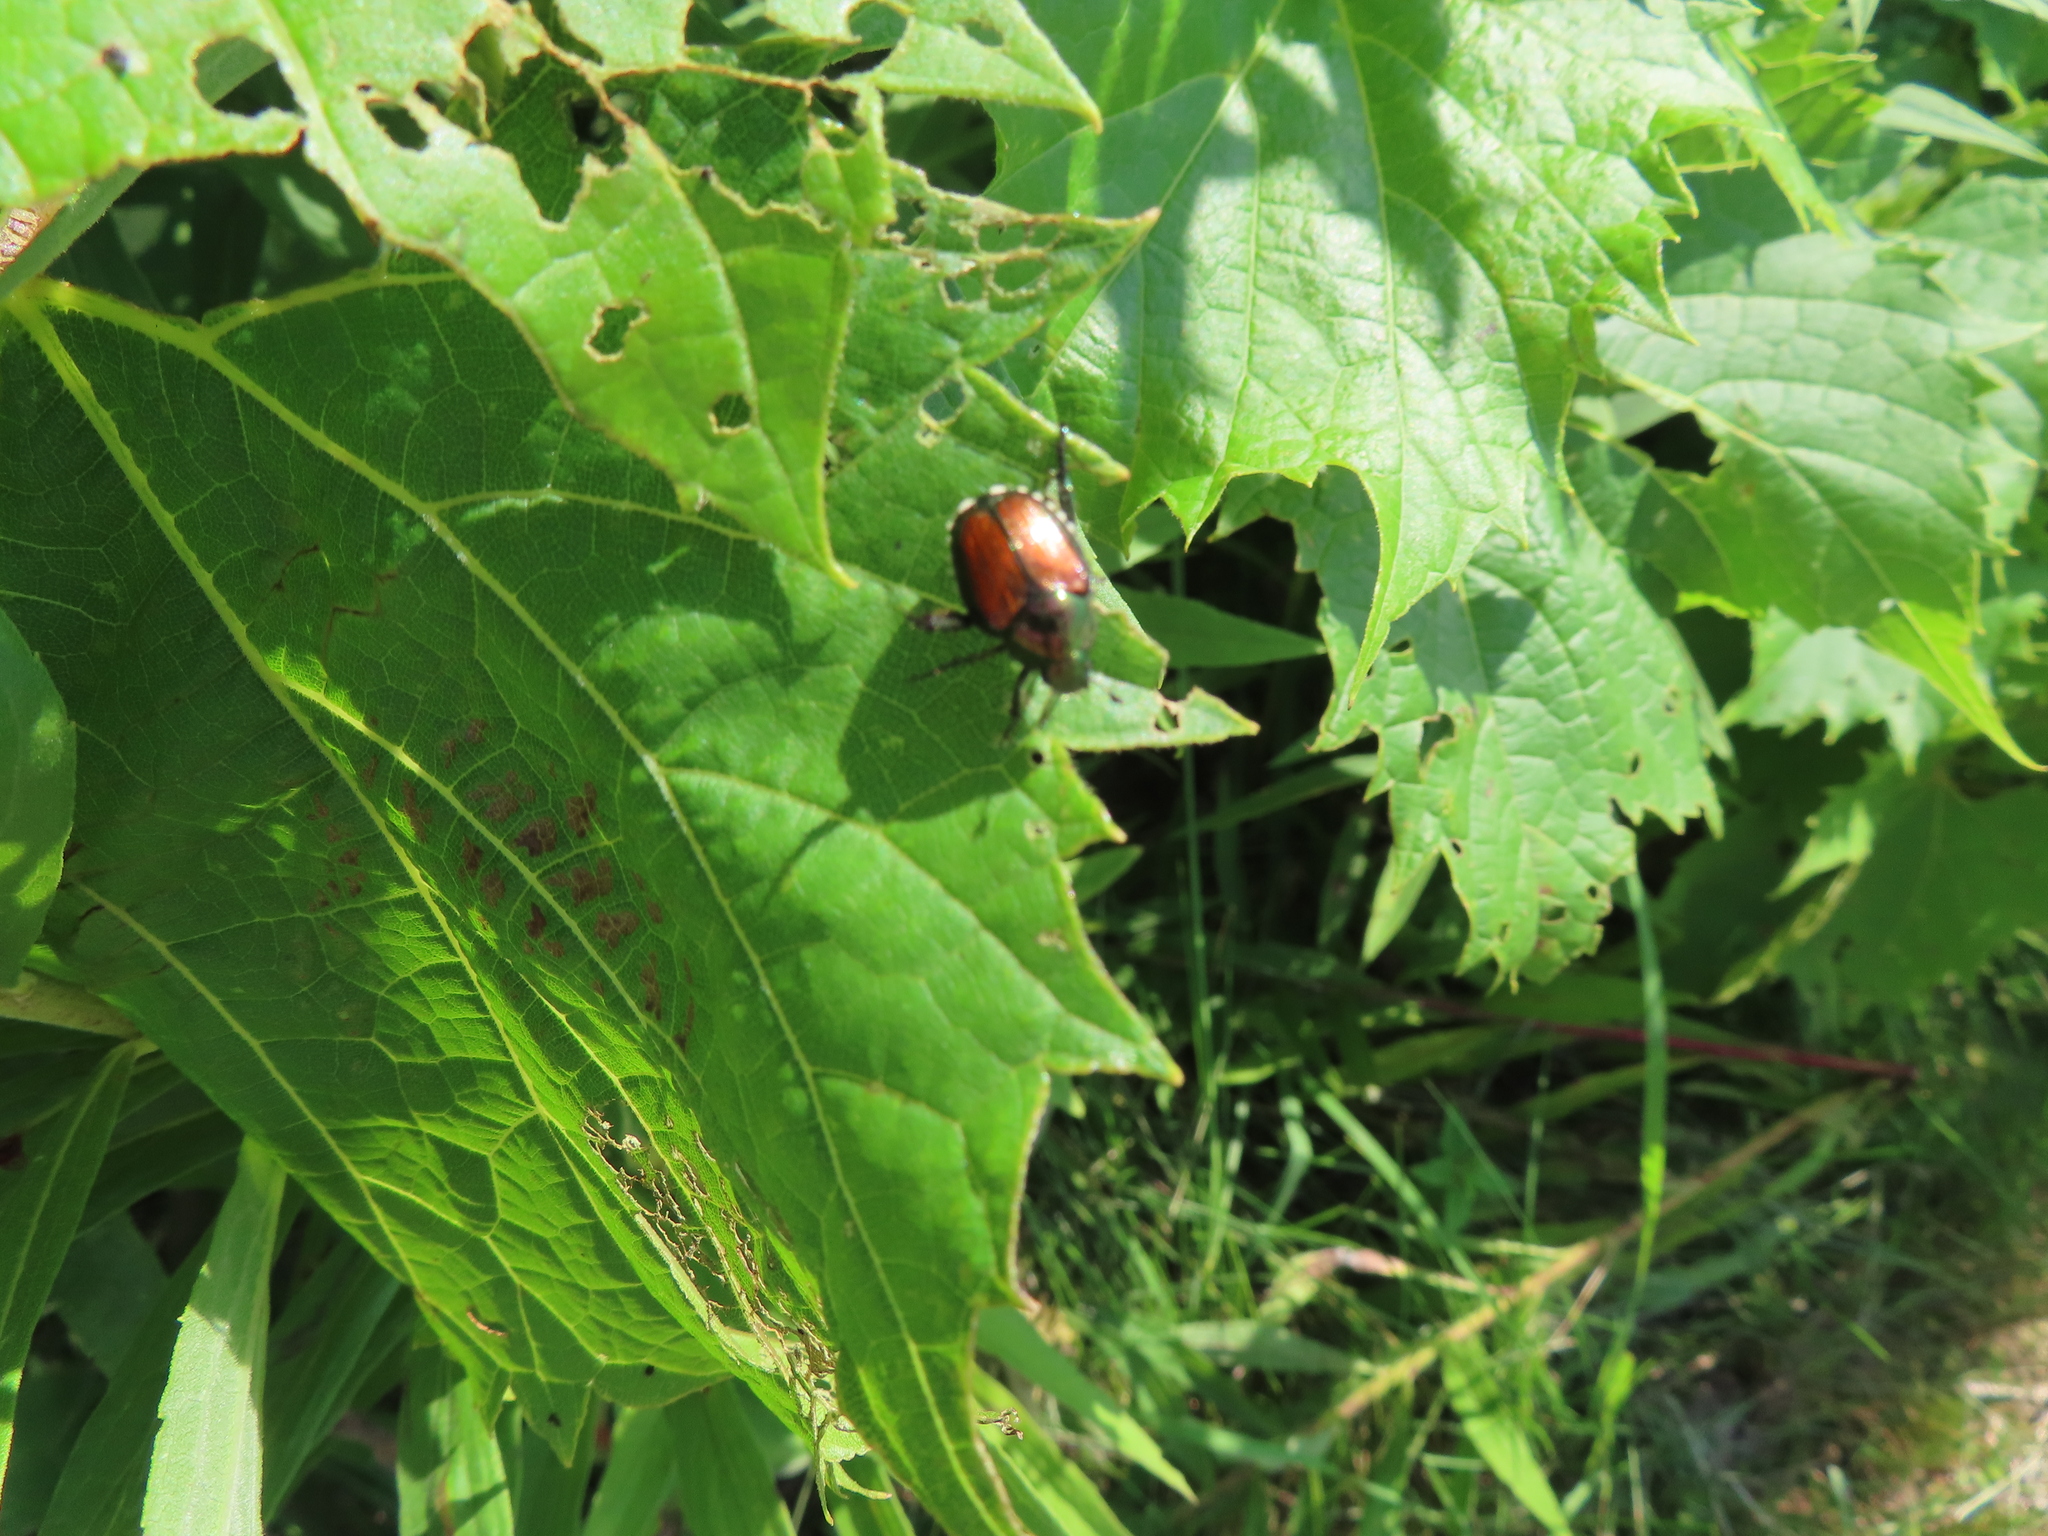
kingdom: Animalia
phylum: Arthropoda
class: Insecta
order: Coleoptera
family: Scarabaeidae
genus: Popillia
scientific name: Popillia japonica
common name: Japanese beetle
